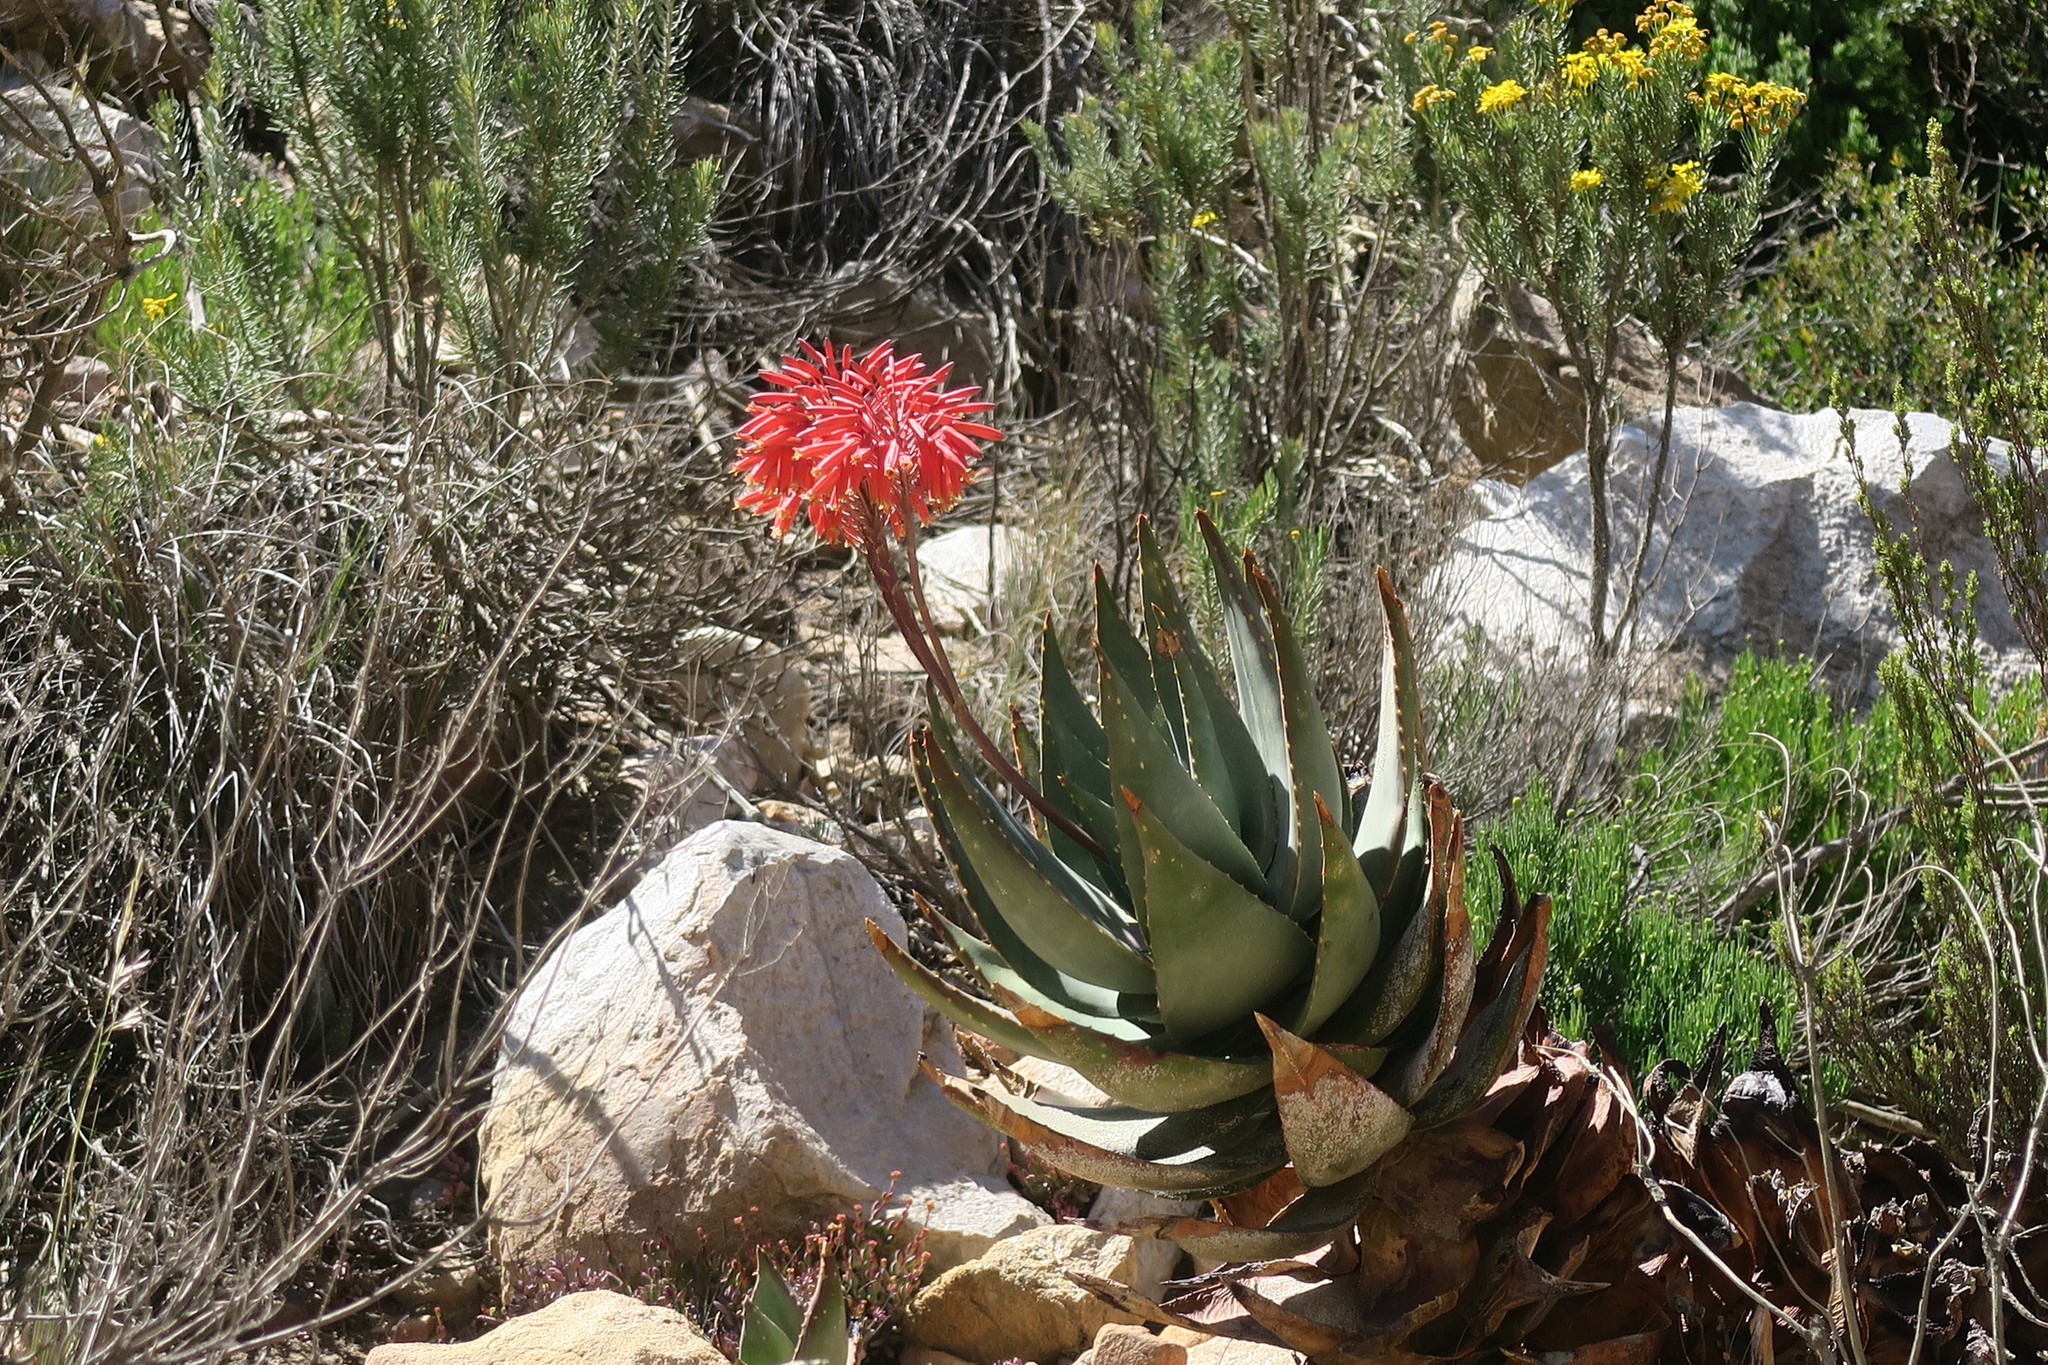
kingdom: Plantae
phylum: Tracheophyta
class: Liliopsida
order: Asparagales
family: Asphodelaceae
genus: Aloe
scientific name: Aloe comptonii
